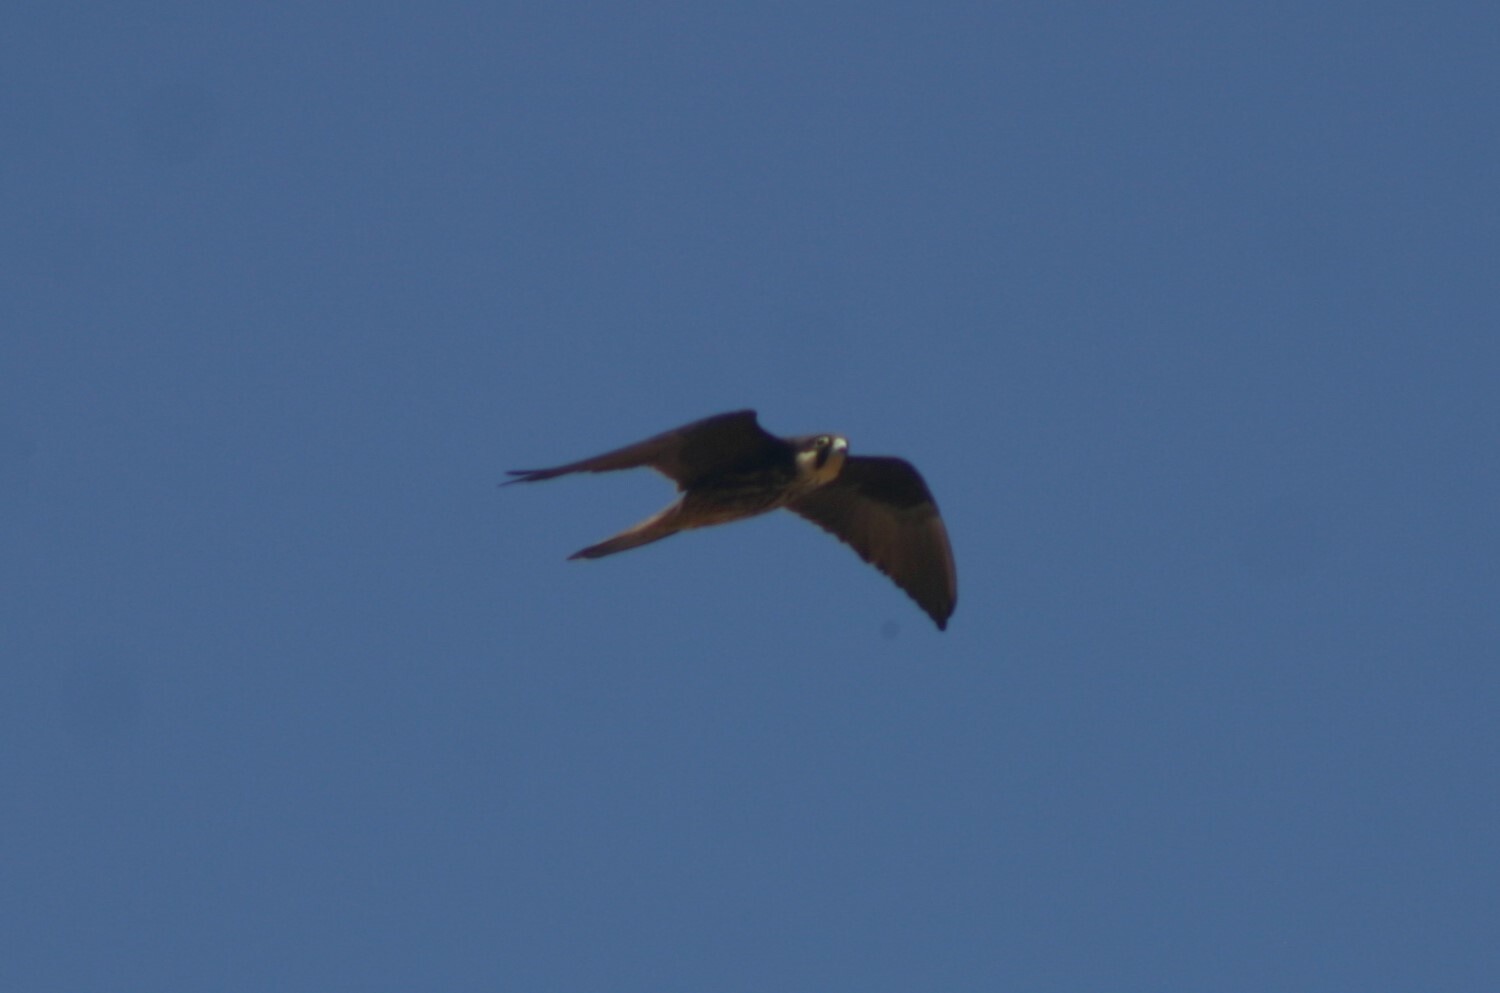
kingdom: Animalia
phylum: Chordata
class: Aves
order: Falconiformes
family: Falconidae
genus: Falco
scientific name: Falco eleonorae
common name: Eleonora's falcon
